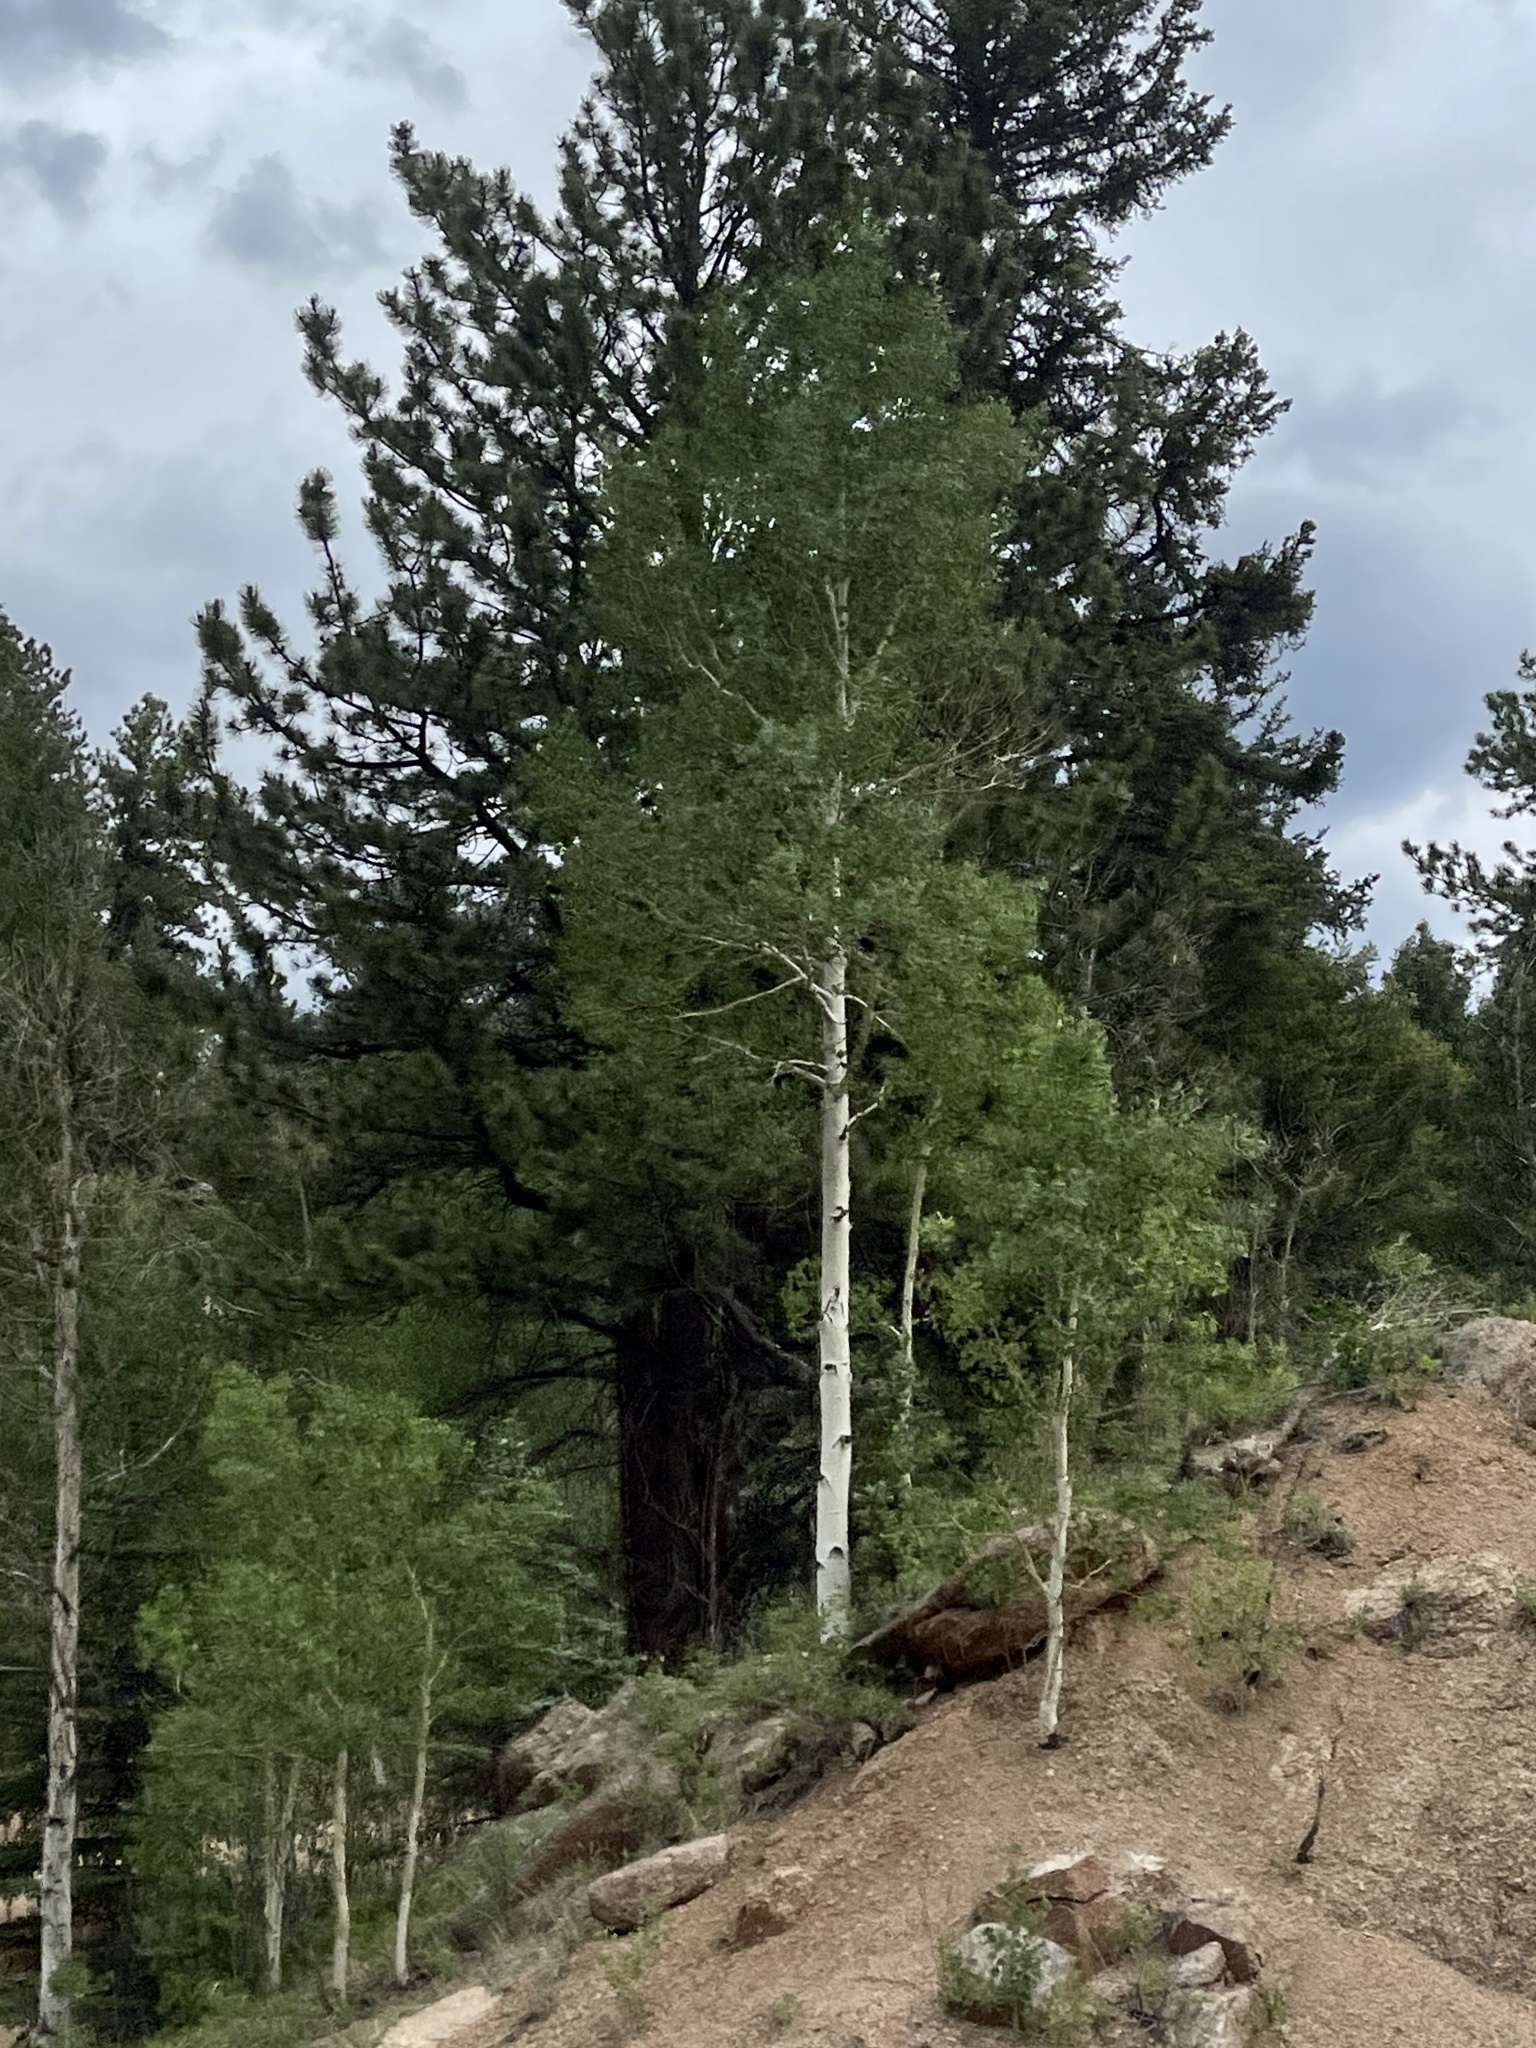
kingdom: Plantae
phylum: Tracheophyta
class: Magnoliopsida
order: Malpighiales
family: Salicaceae
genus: Populus
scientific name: Populus tremuloides
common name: Quaking aspen
